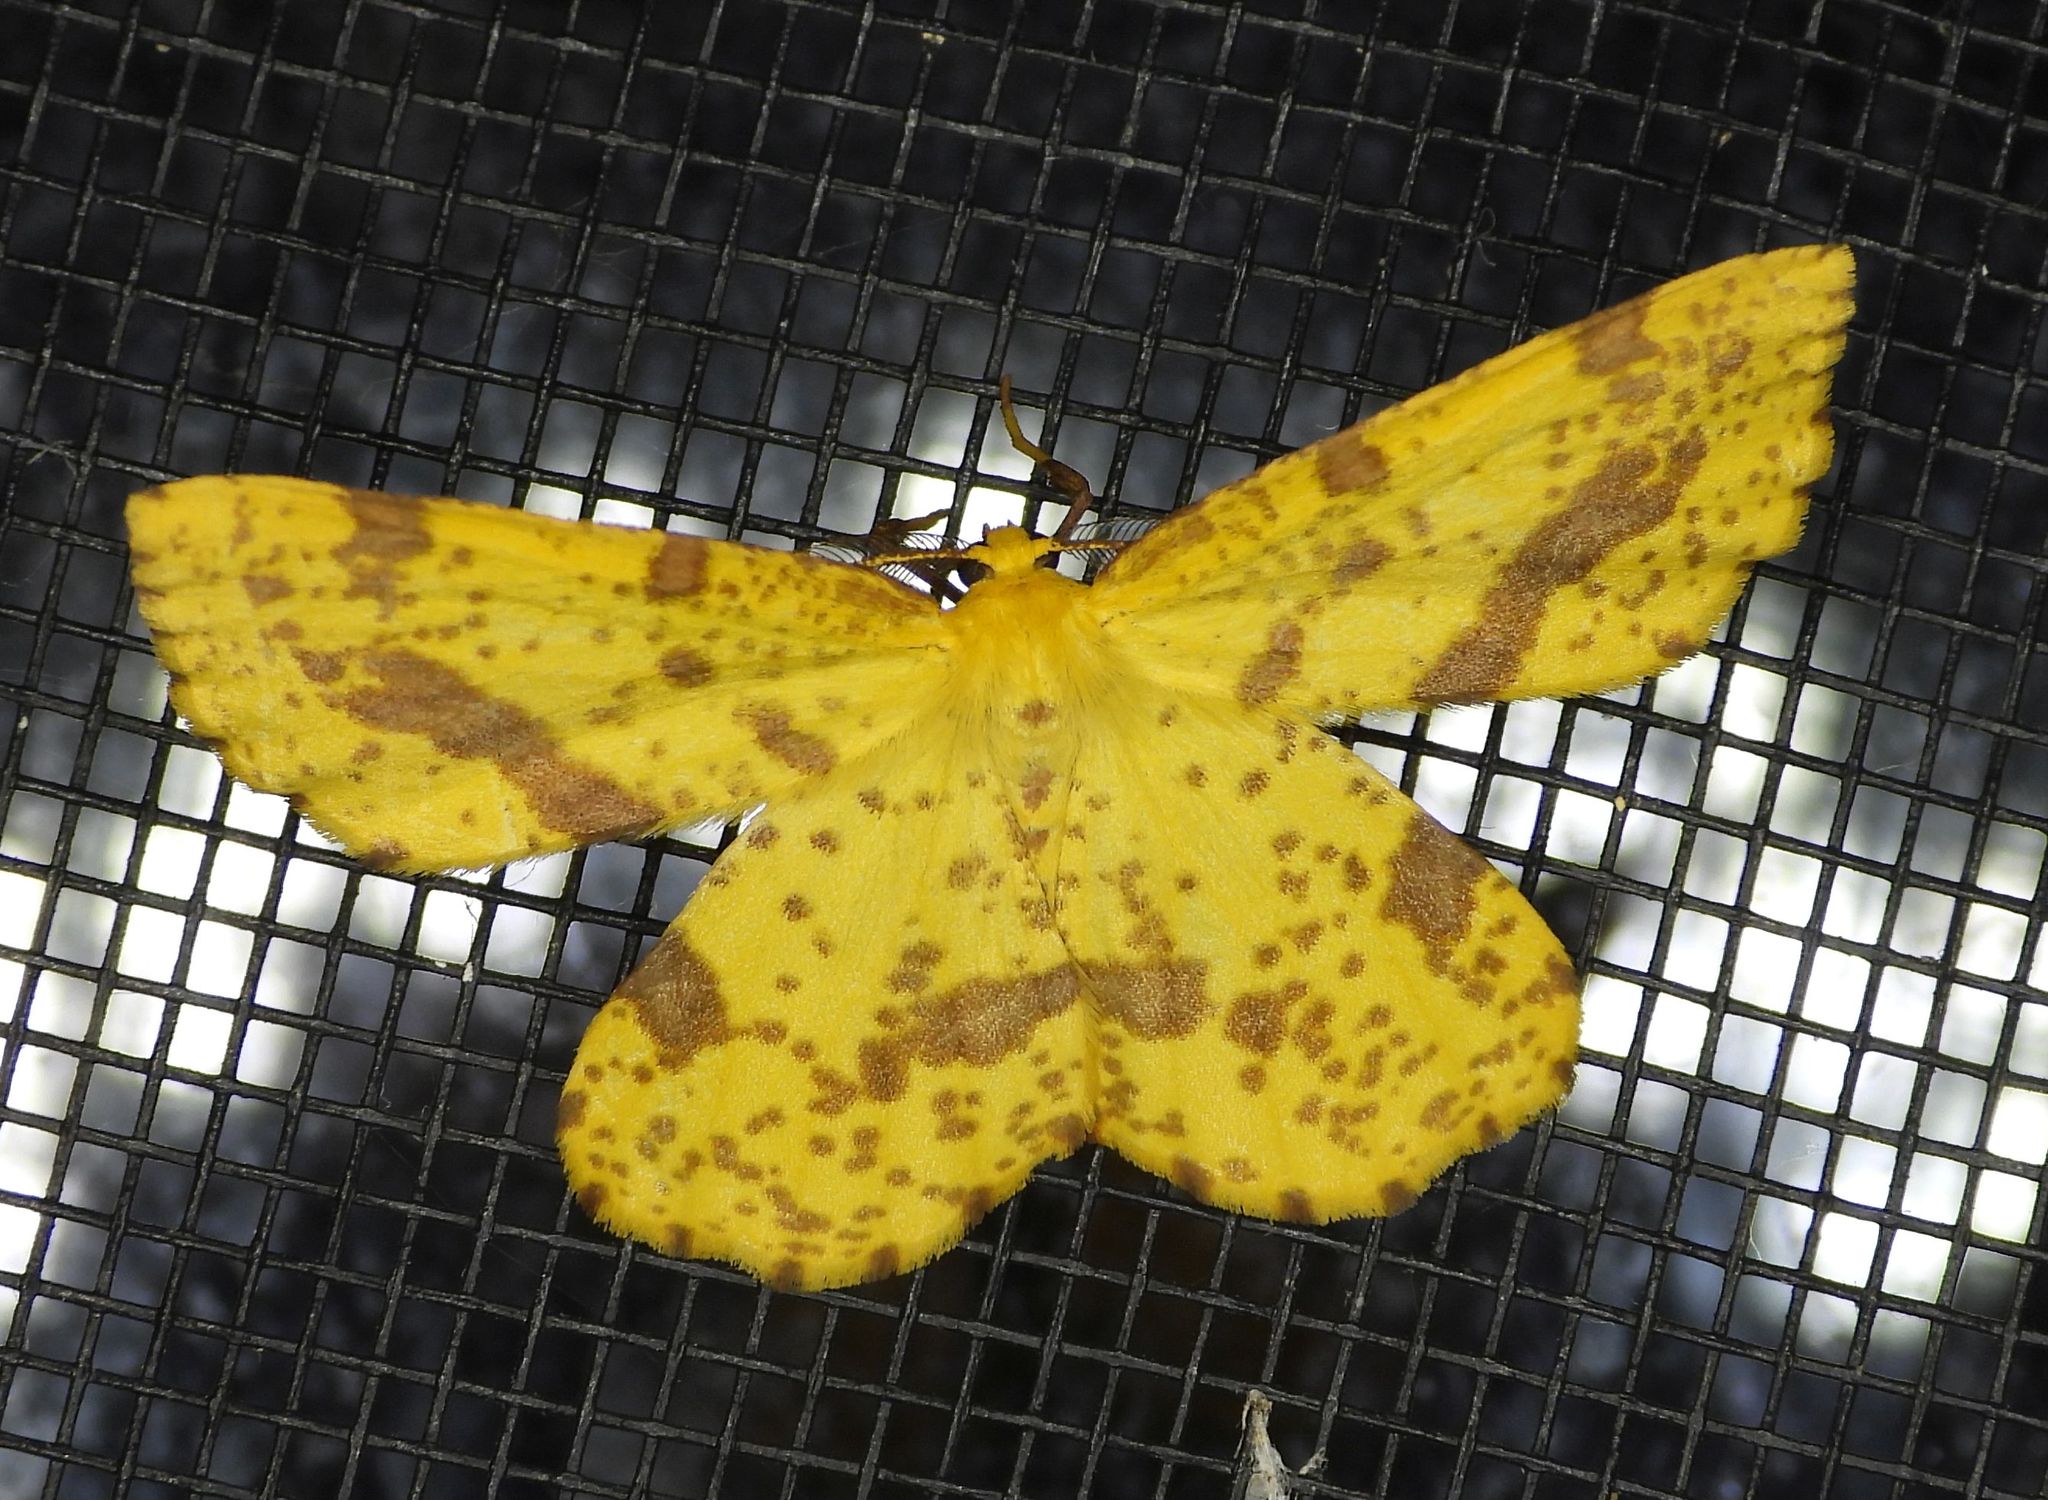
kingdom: Animalia
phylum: Arthropoda
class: Insecta
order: Lepidoptera
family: Geometridae
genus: Xanthotype
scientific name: Xanthotype
